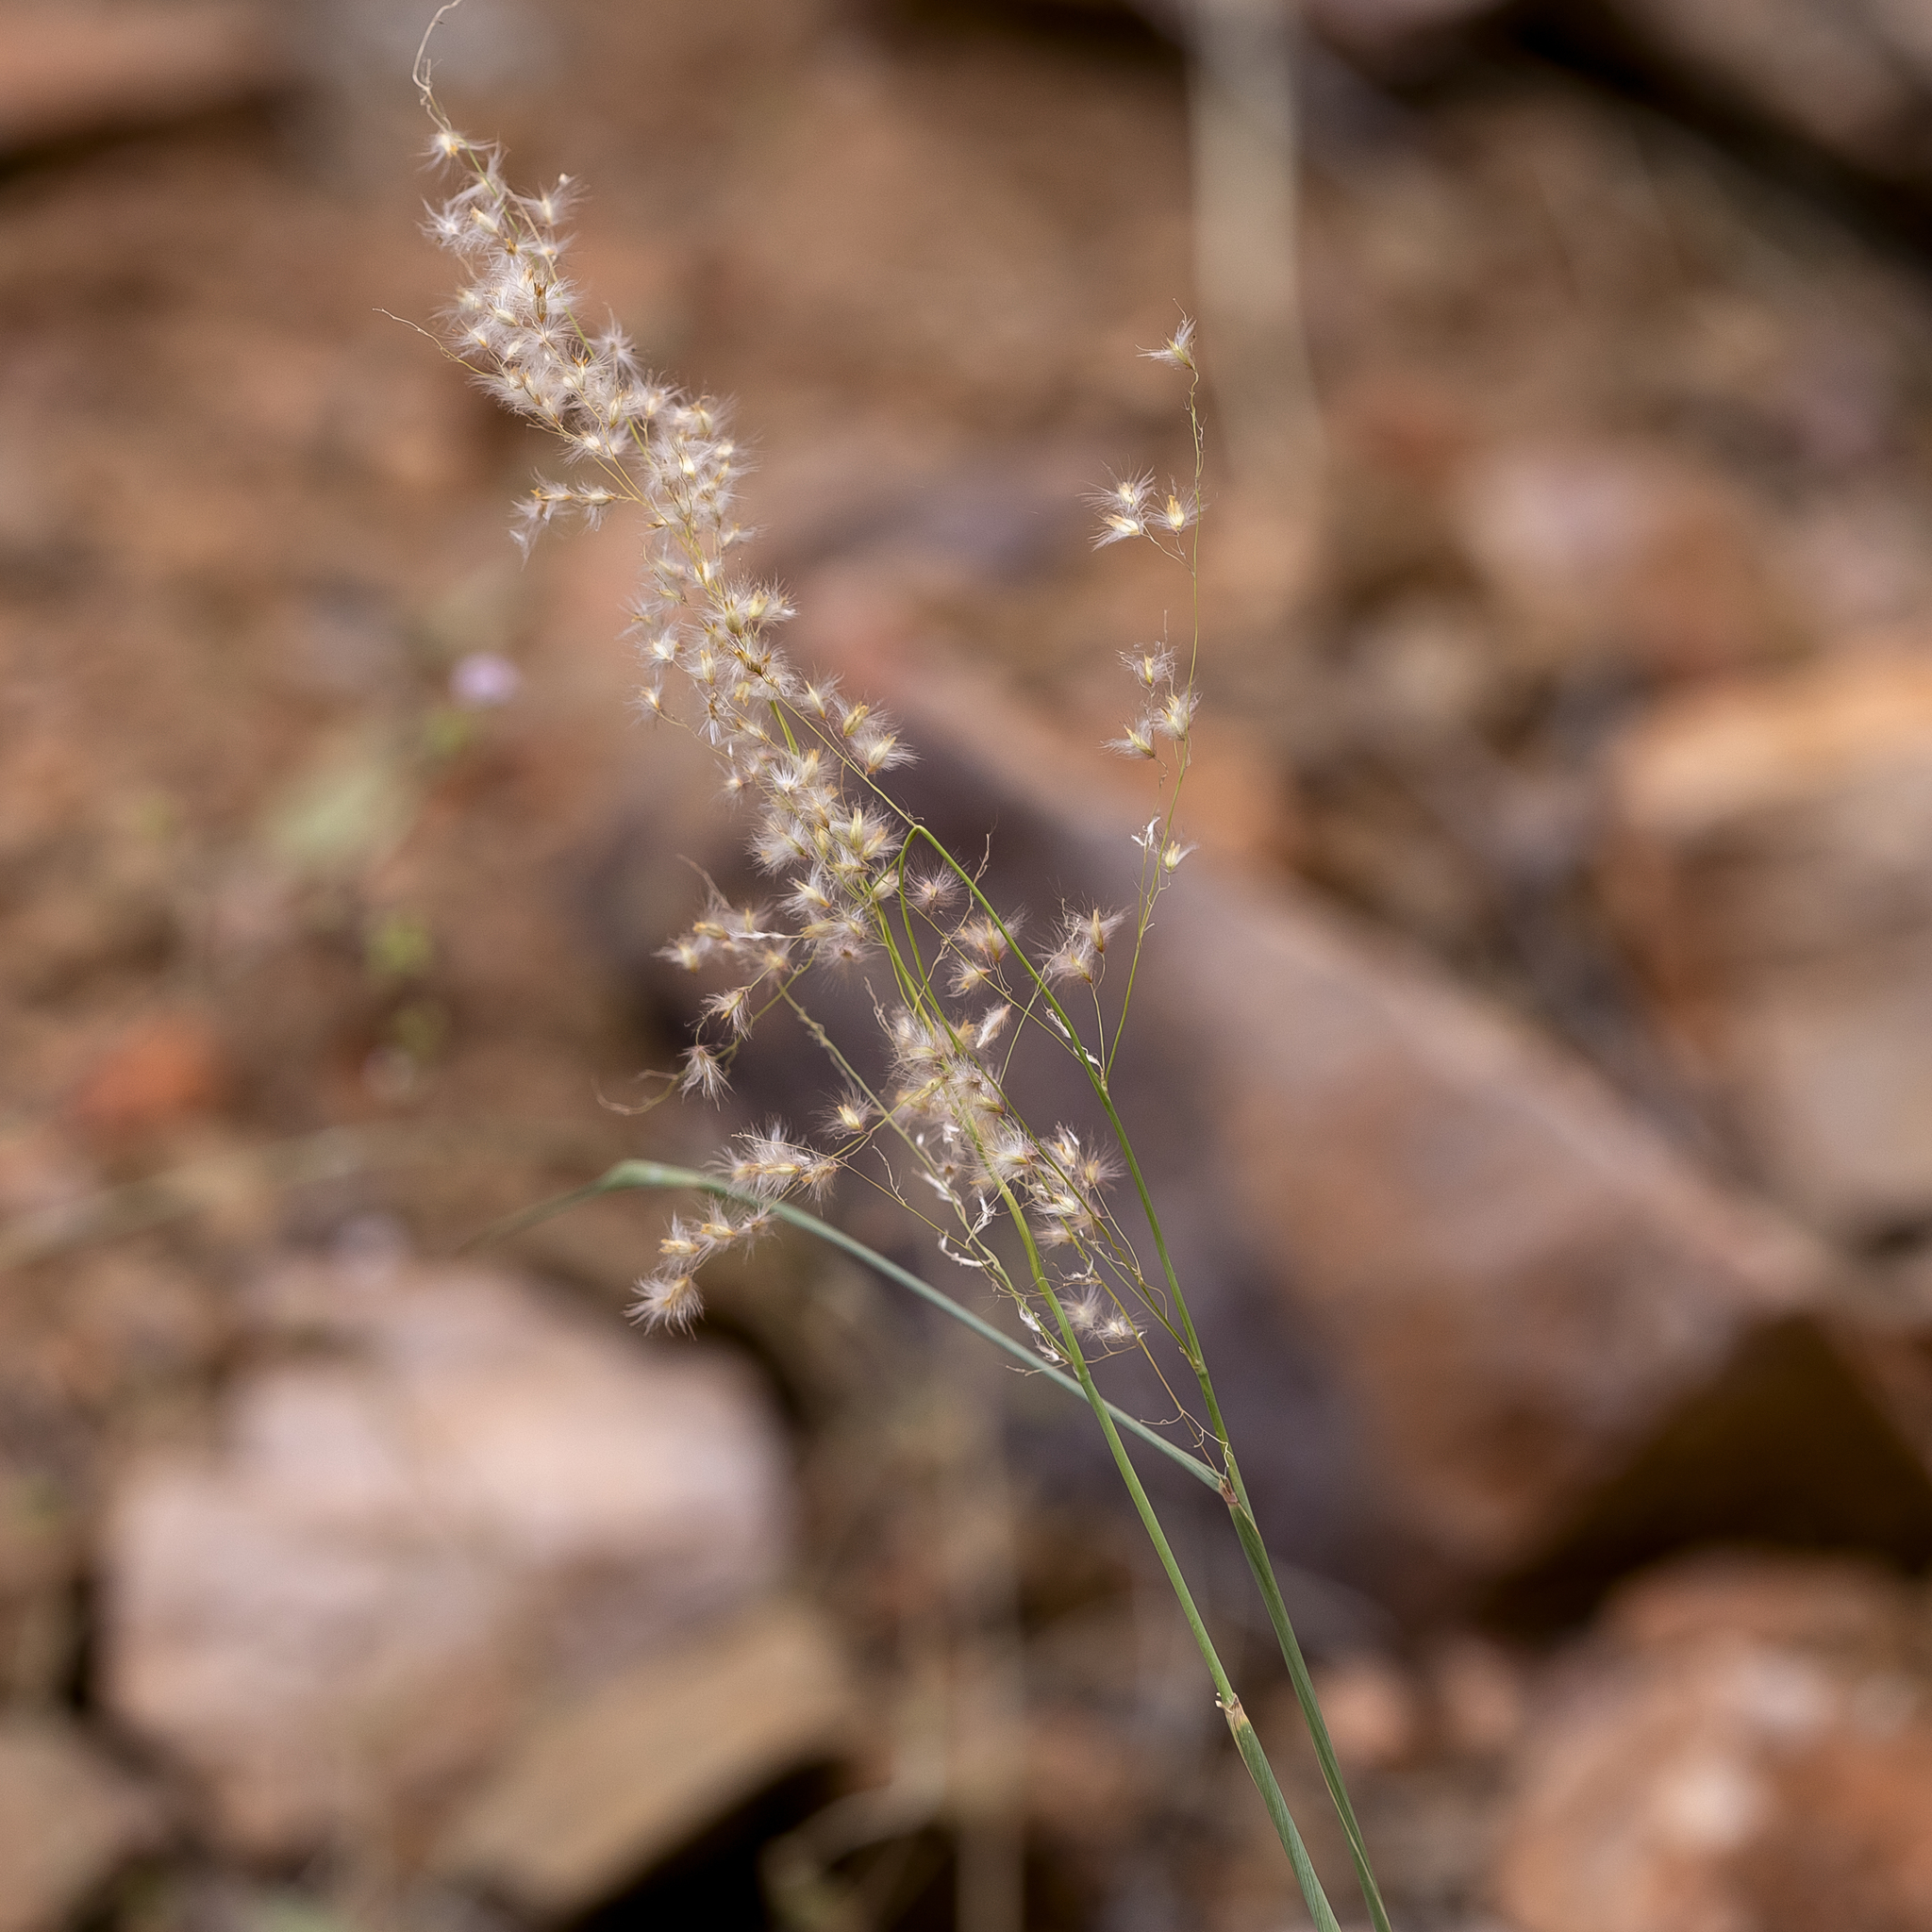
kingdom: Plantae
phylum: Tracheophyta
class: Liliopsida
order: Poales
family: Poaceae
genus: Melinis
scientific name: Melinis repens
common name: Rose natal grass
